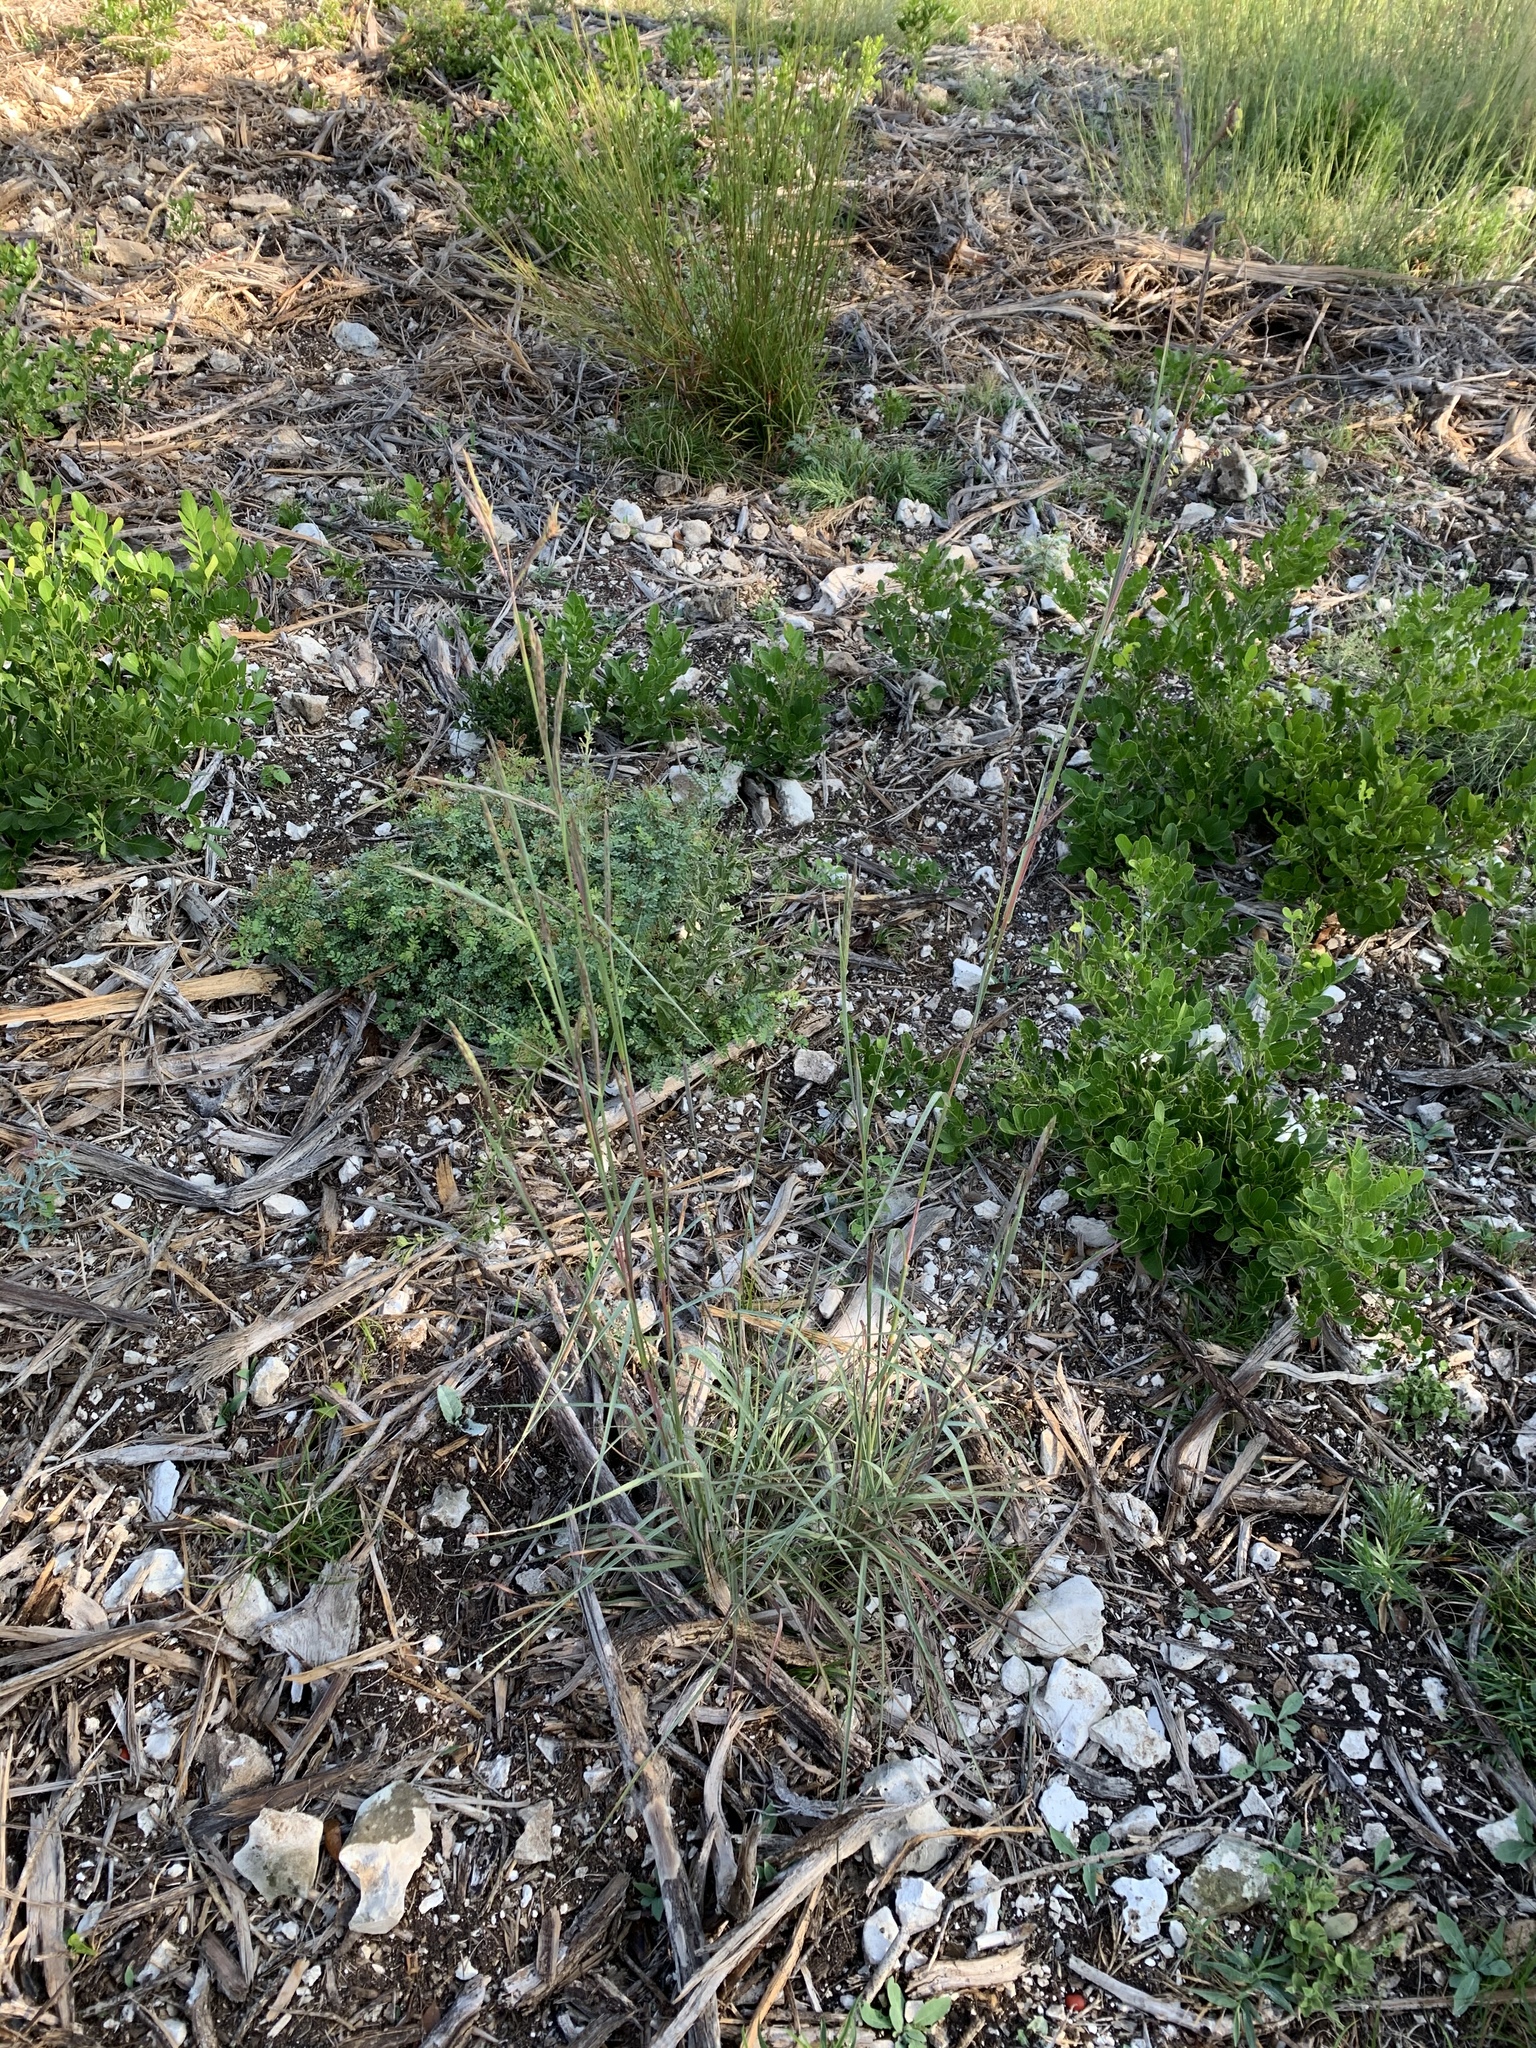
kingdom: Plantae
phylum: Tracheophyta
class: Liliopsida
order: Poales
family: Poaceae
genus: Andropogon
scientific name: Andropogon gerardi
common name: Big bluestem
